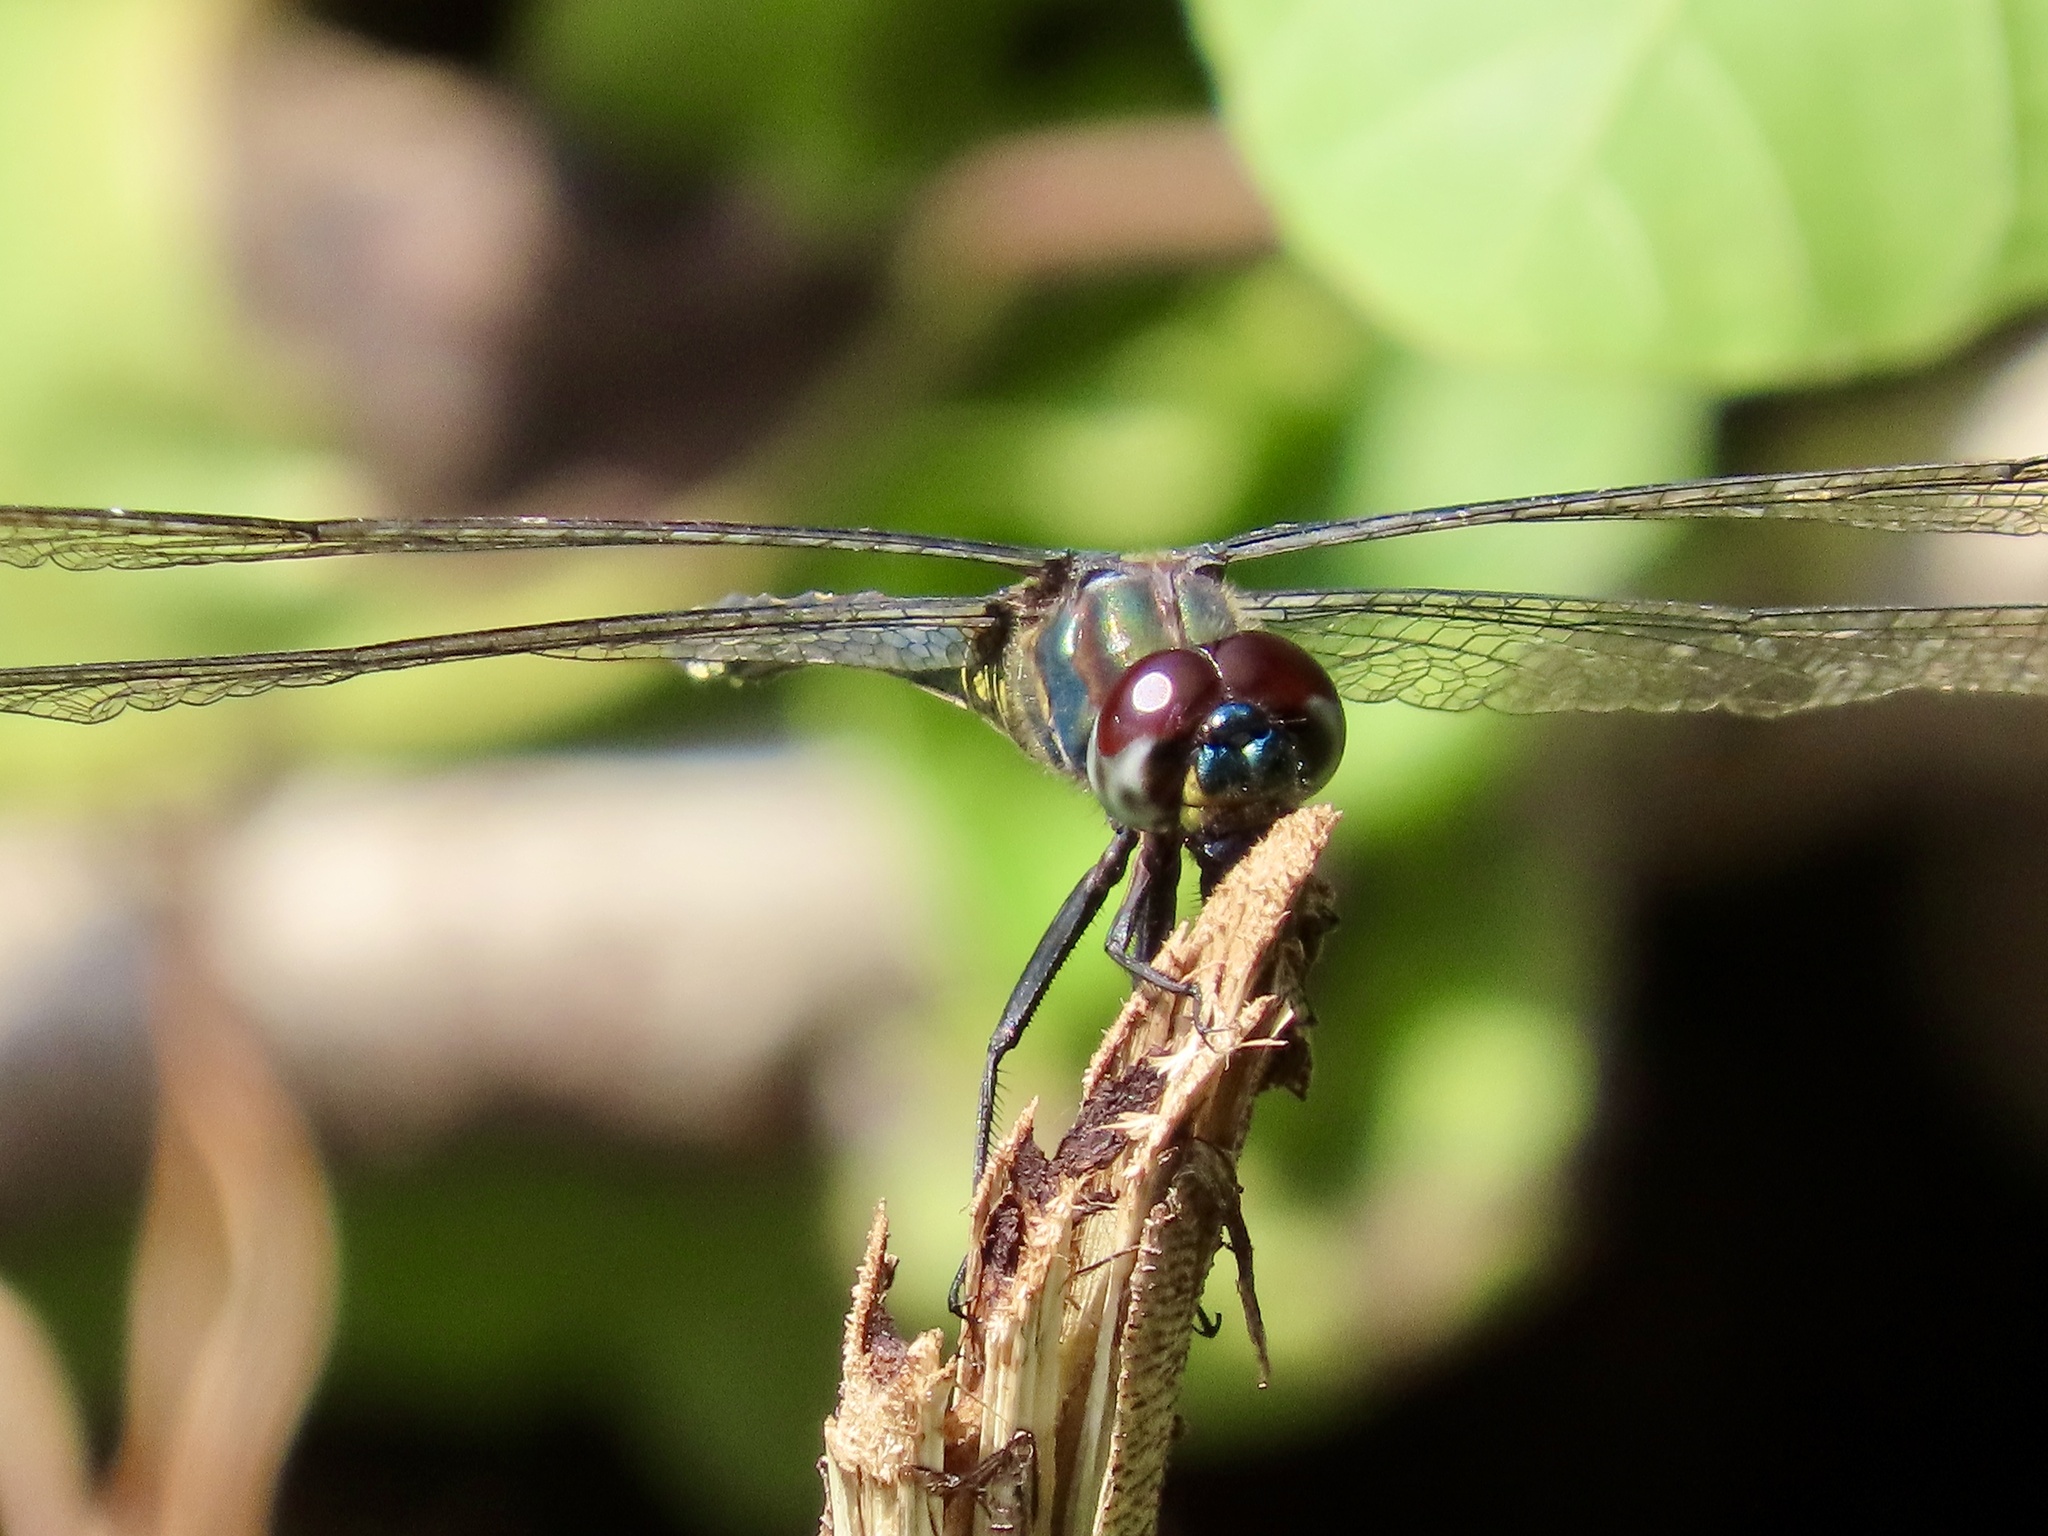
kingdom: Animalia
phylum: Arthropoda
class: Insecta
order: Odonata
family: Libellulidae
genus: Zygonyx
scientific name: Zygonyx iris
